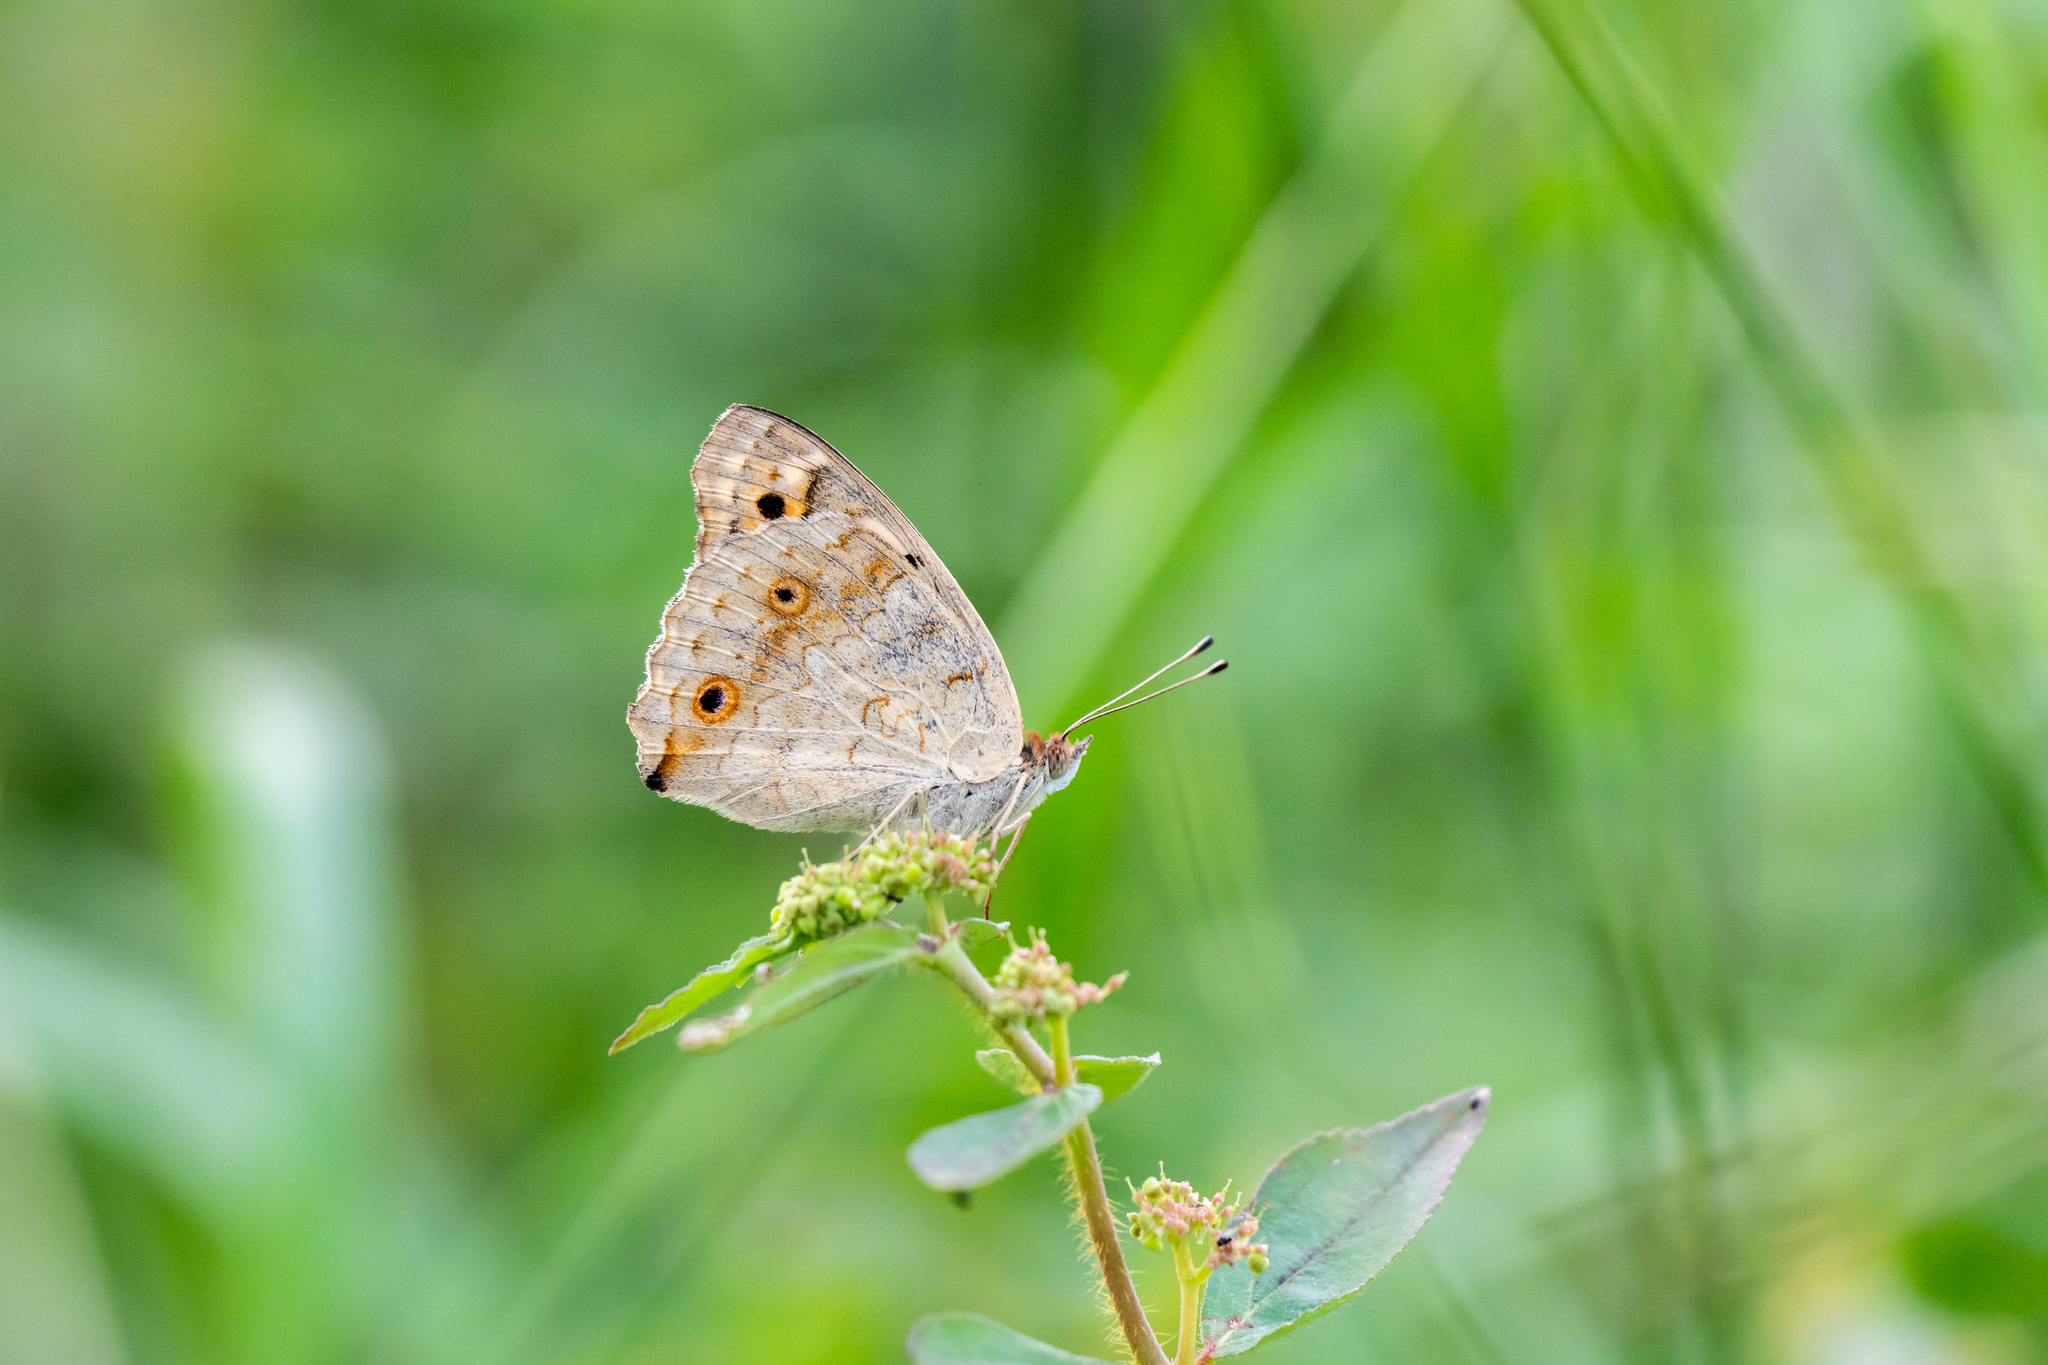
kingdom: Animalia
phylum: Arthropoda
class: Insecta
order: Lepidoptera
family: Nymphalidae
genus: Junonia
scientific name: Junonia orithya
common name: Blue pansy
